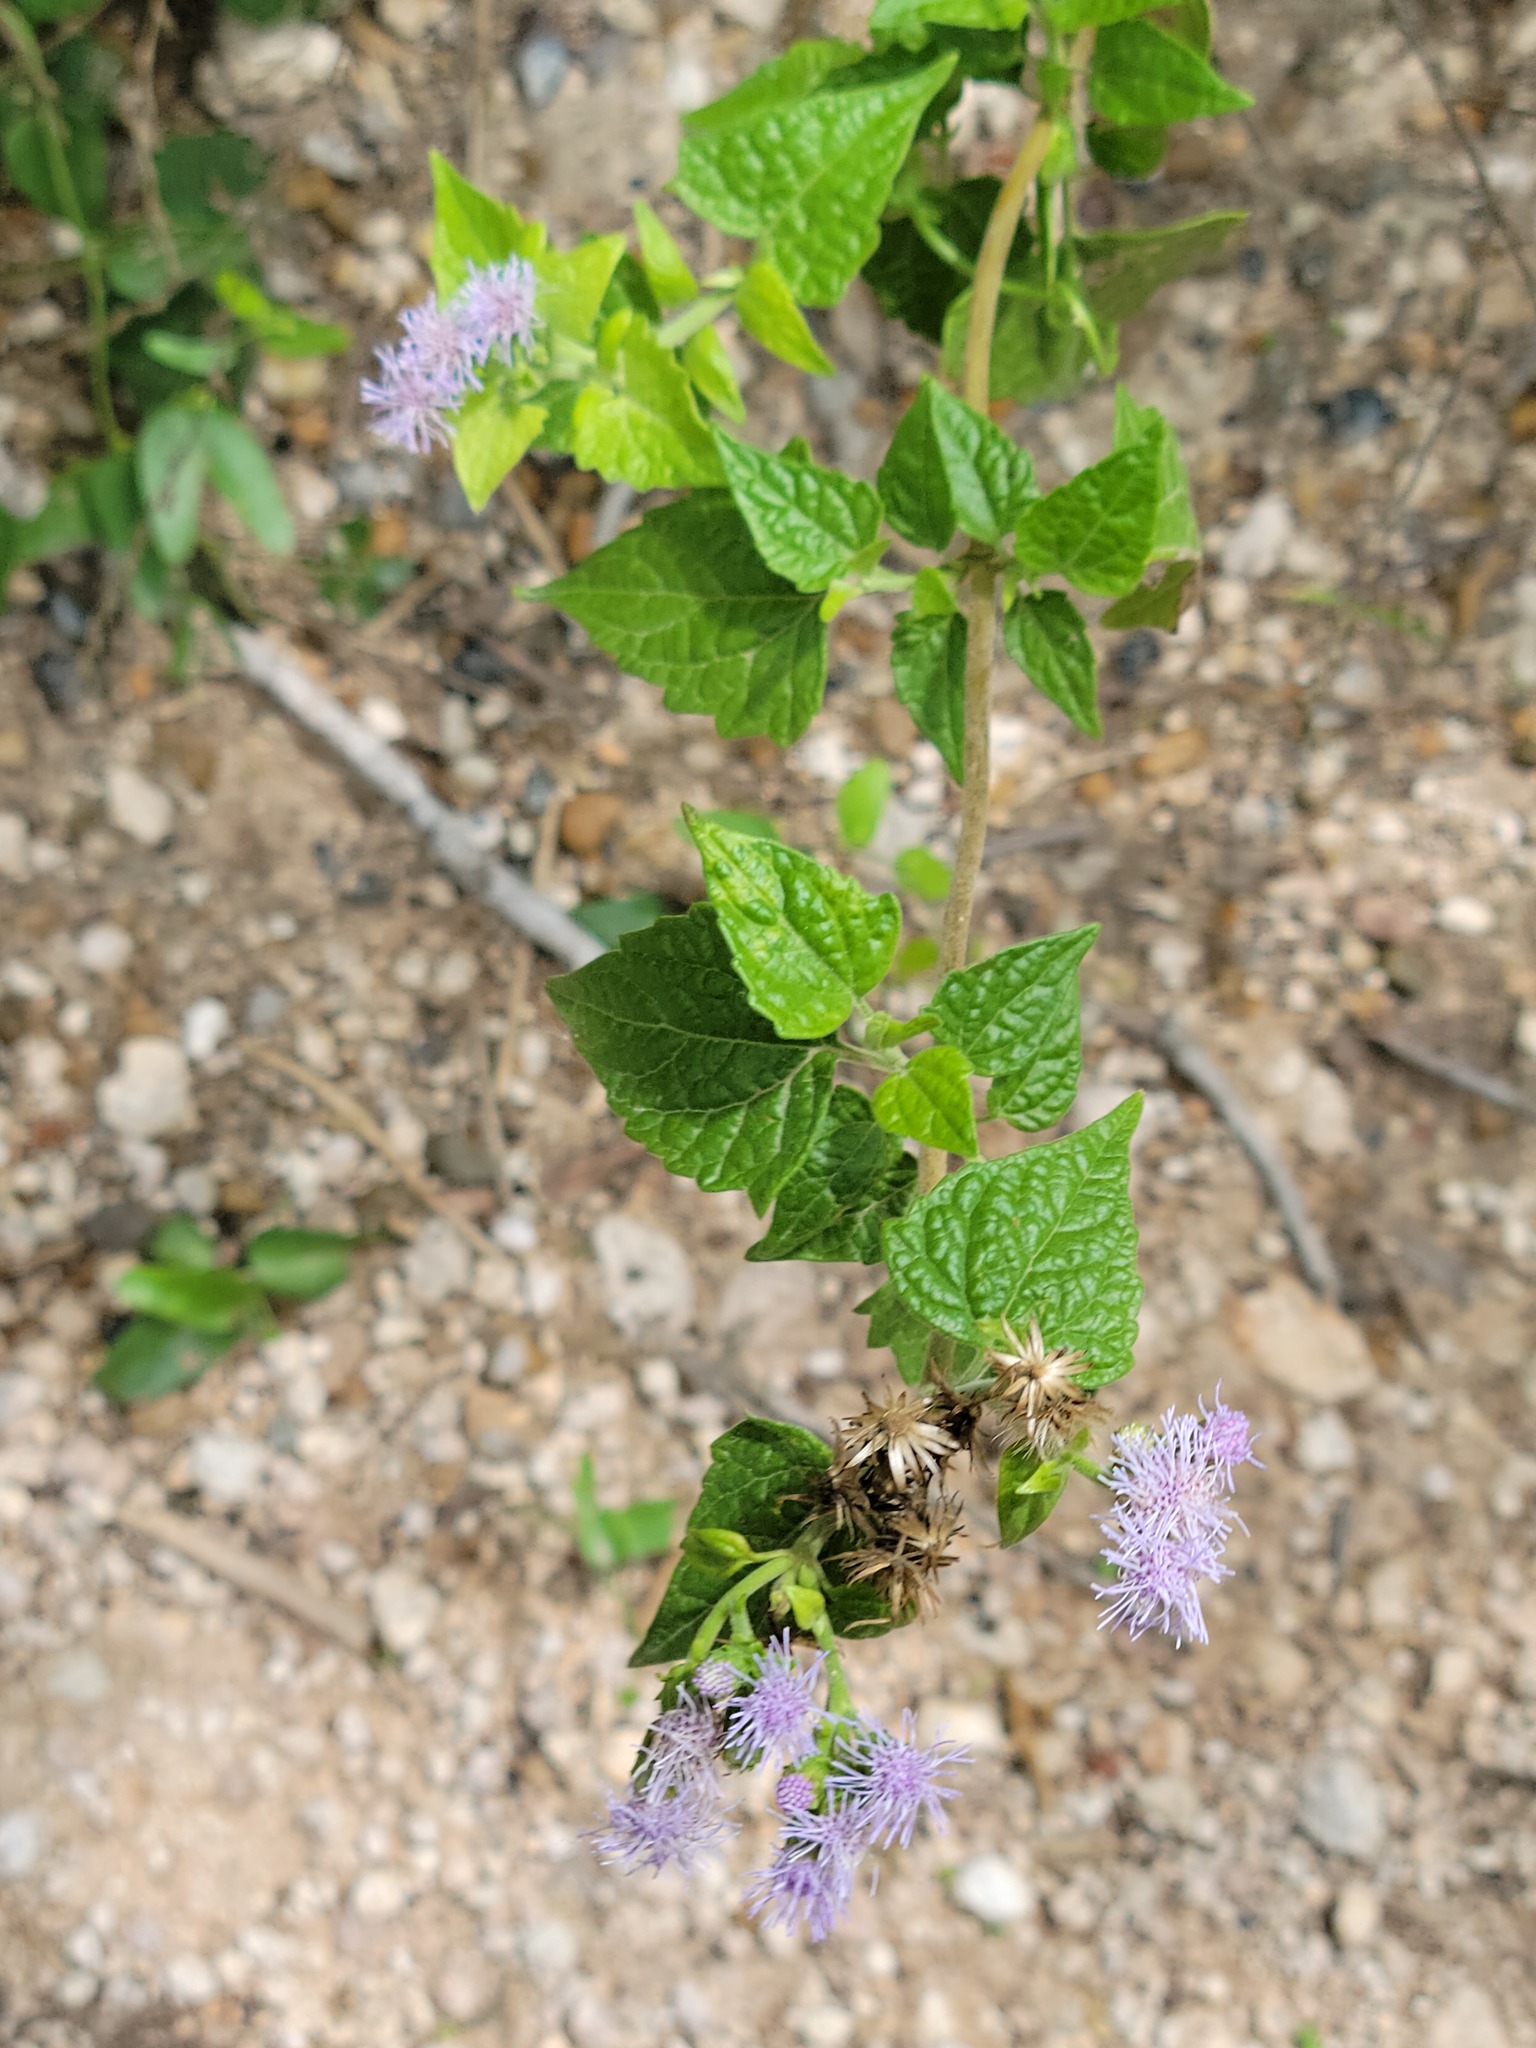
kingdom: Plantae
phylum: Tracheophyta
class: Magnoliopsida
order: Asterales
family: Asteraceae
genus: Tamaulipa
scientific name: Tamaulipa azurea
